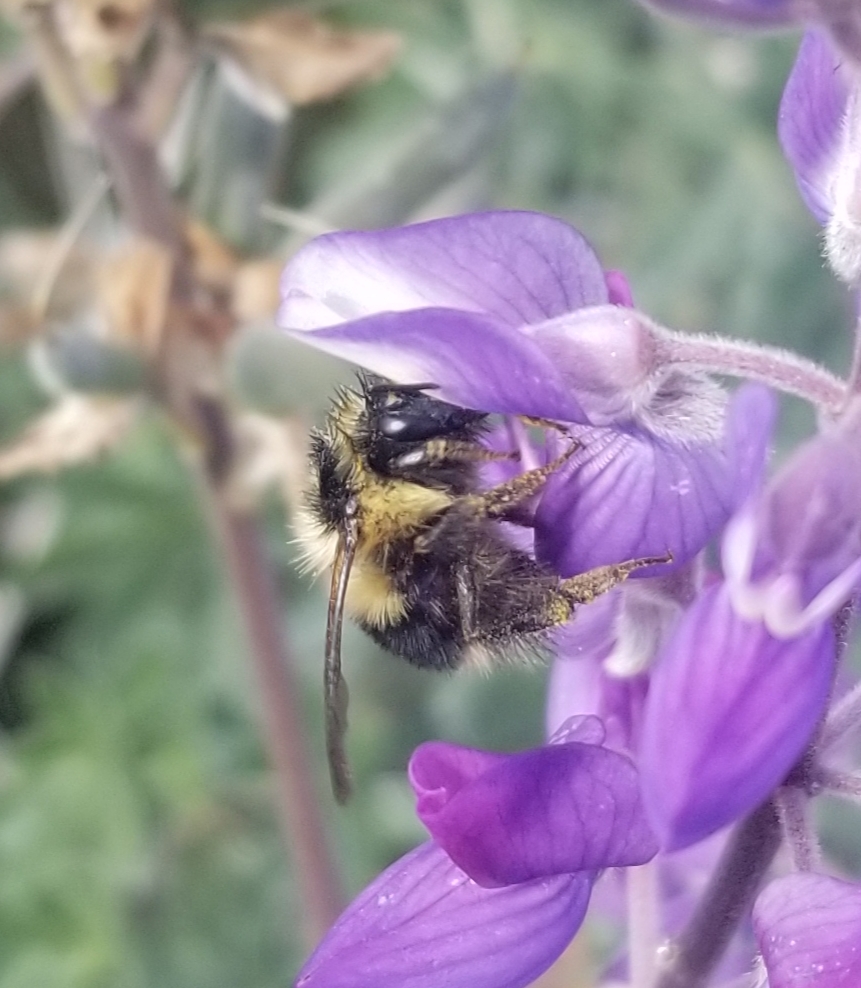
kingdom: Animalia
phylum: Arthropoda
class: Insecta
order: Hymenoptera
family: Apidae
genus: Bombus
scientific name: Bombus melanopygus
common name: Black tail bumble bee
